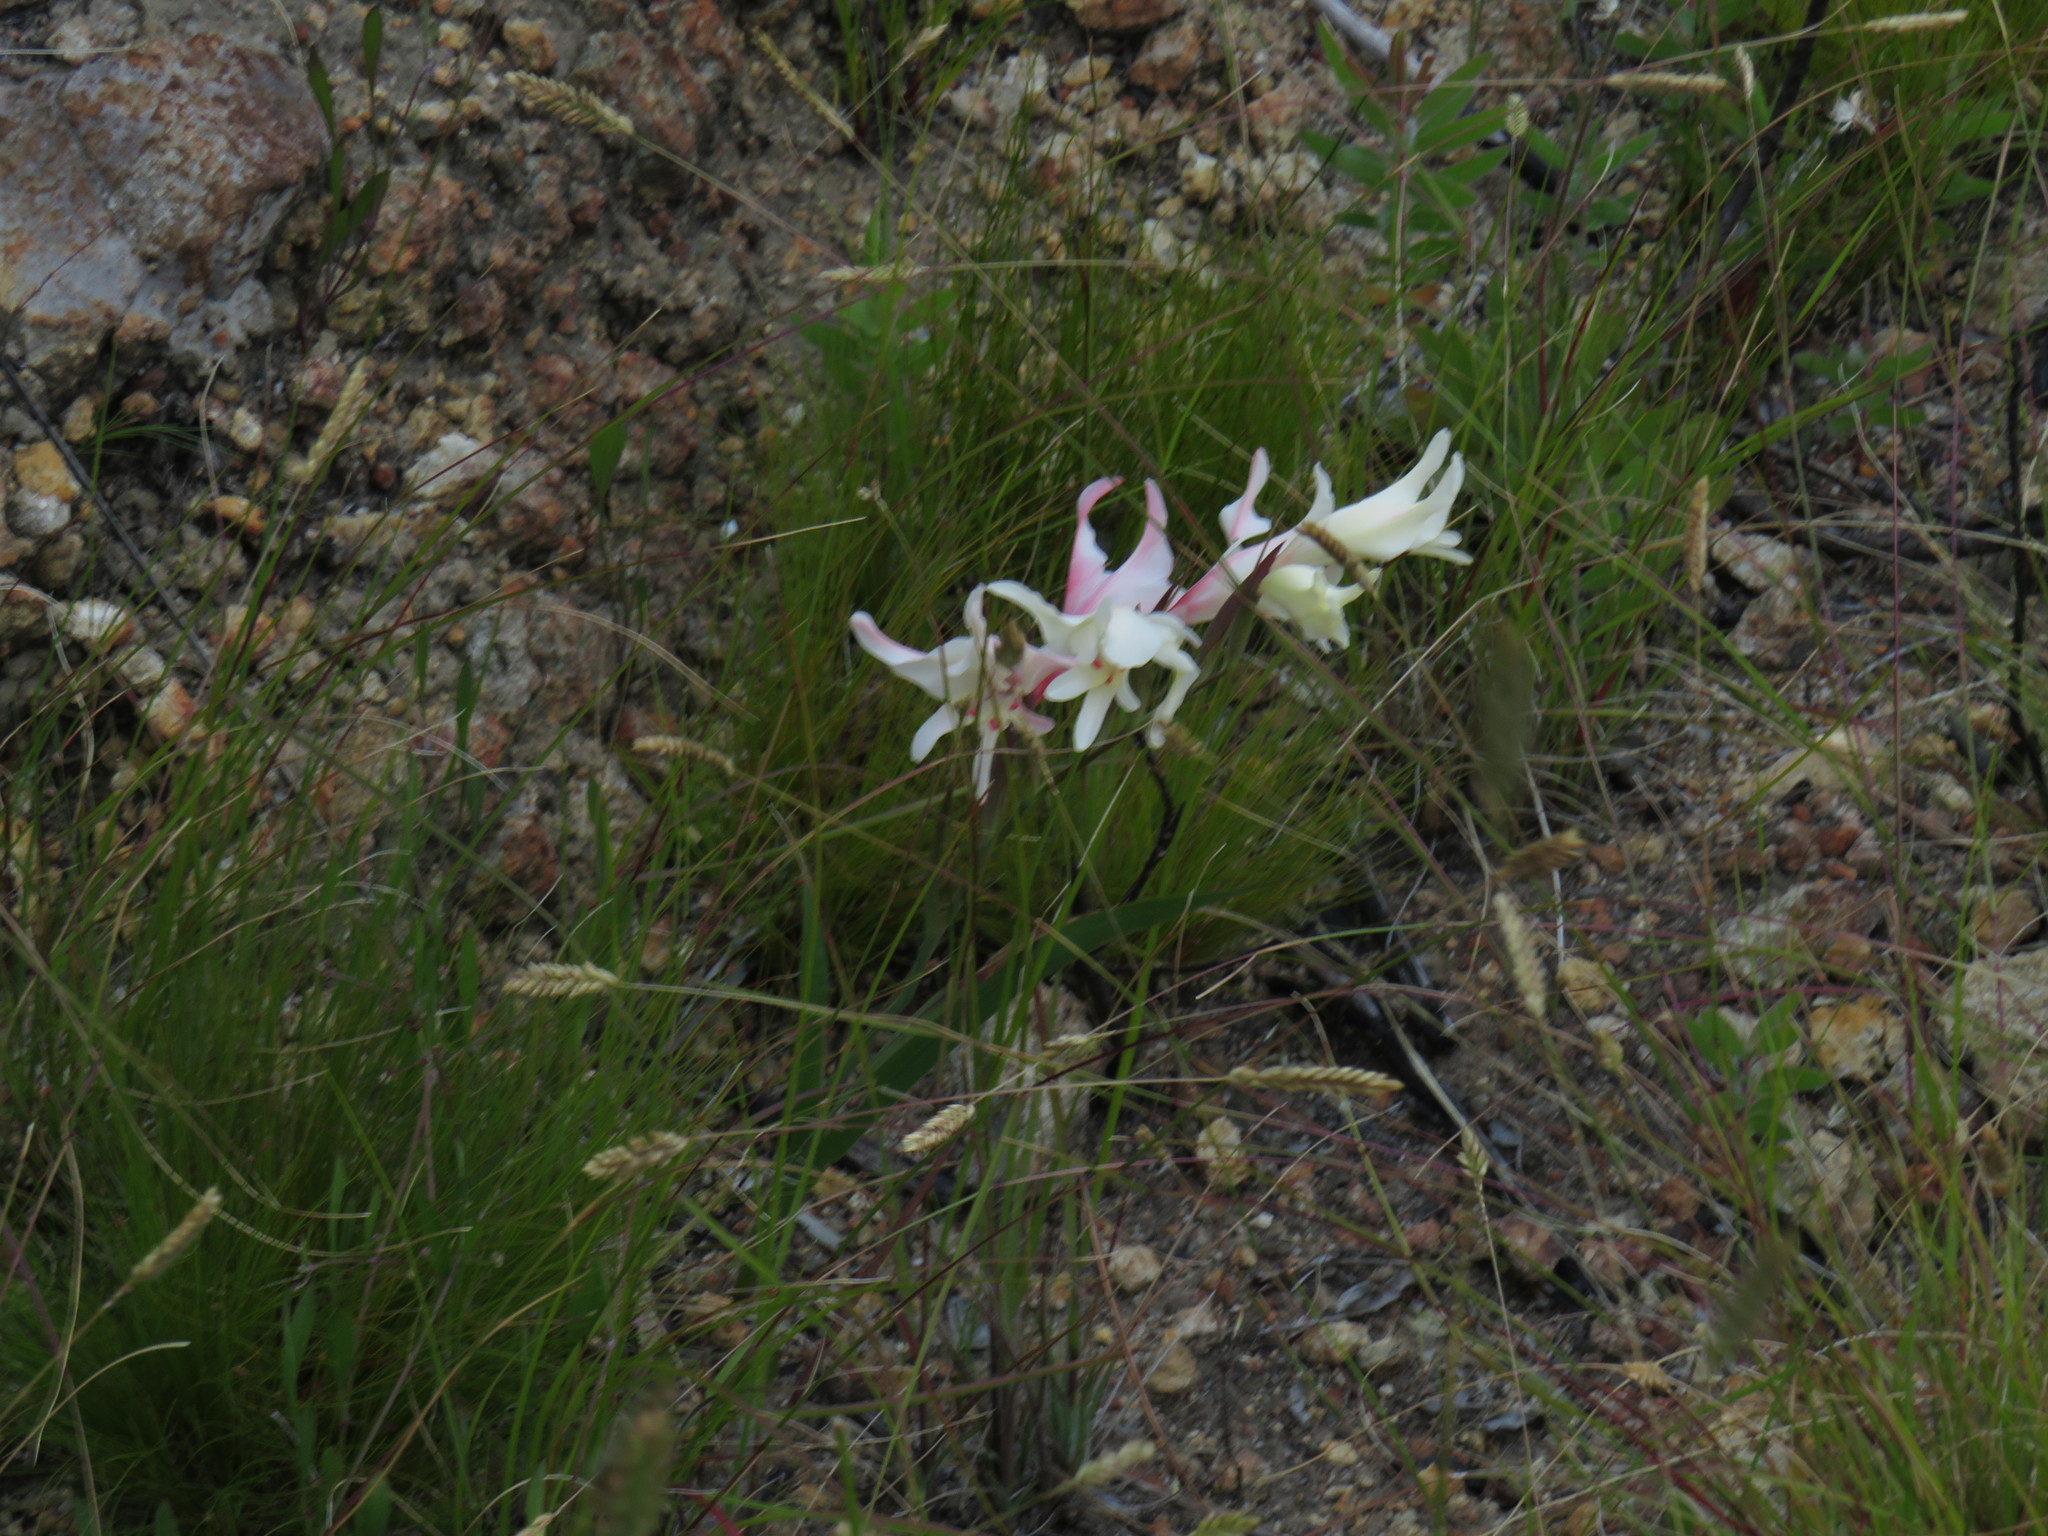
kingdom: Plantae
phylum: Tracheophyta
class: Liliopsida
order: Asparagales
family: Iridaceae
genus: Gladiolus
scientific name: Gladiolus undulatus
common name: Large painted-lady
